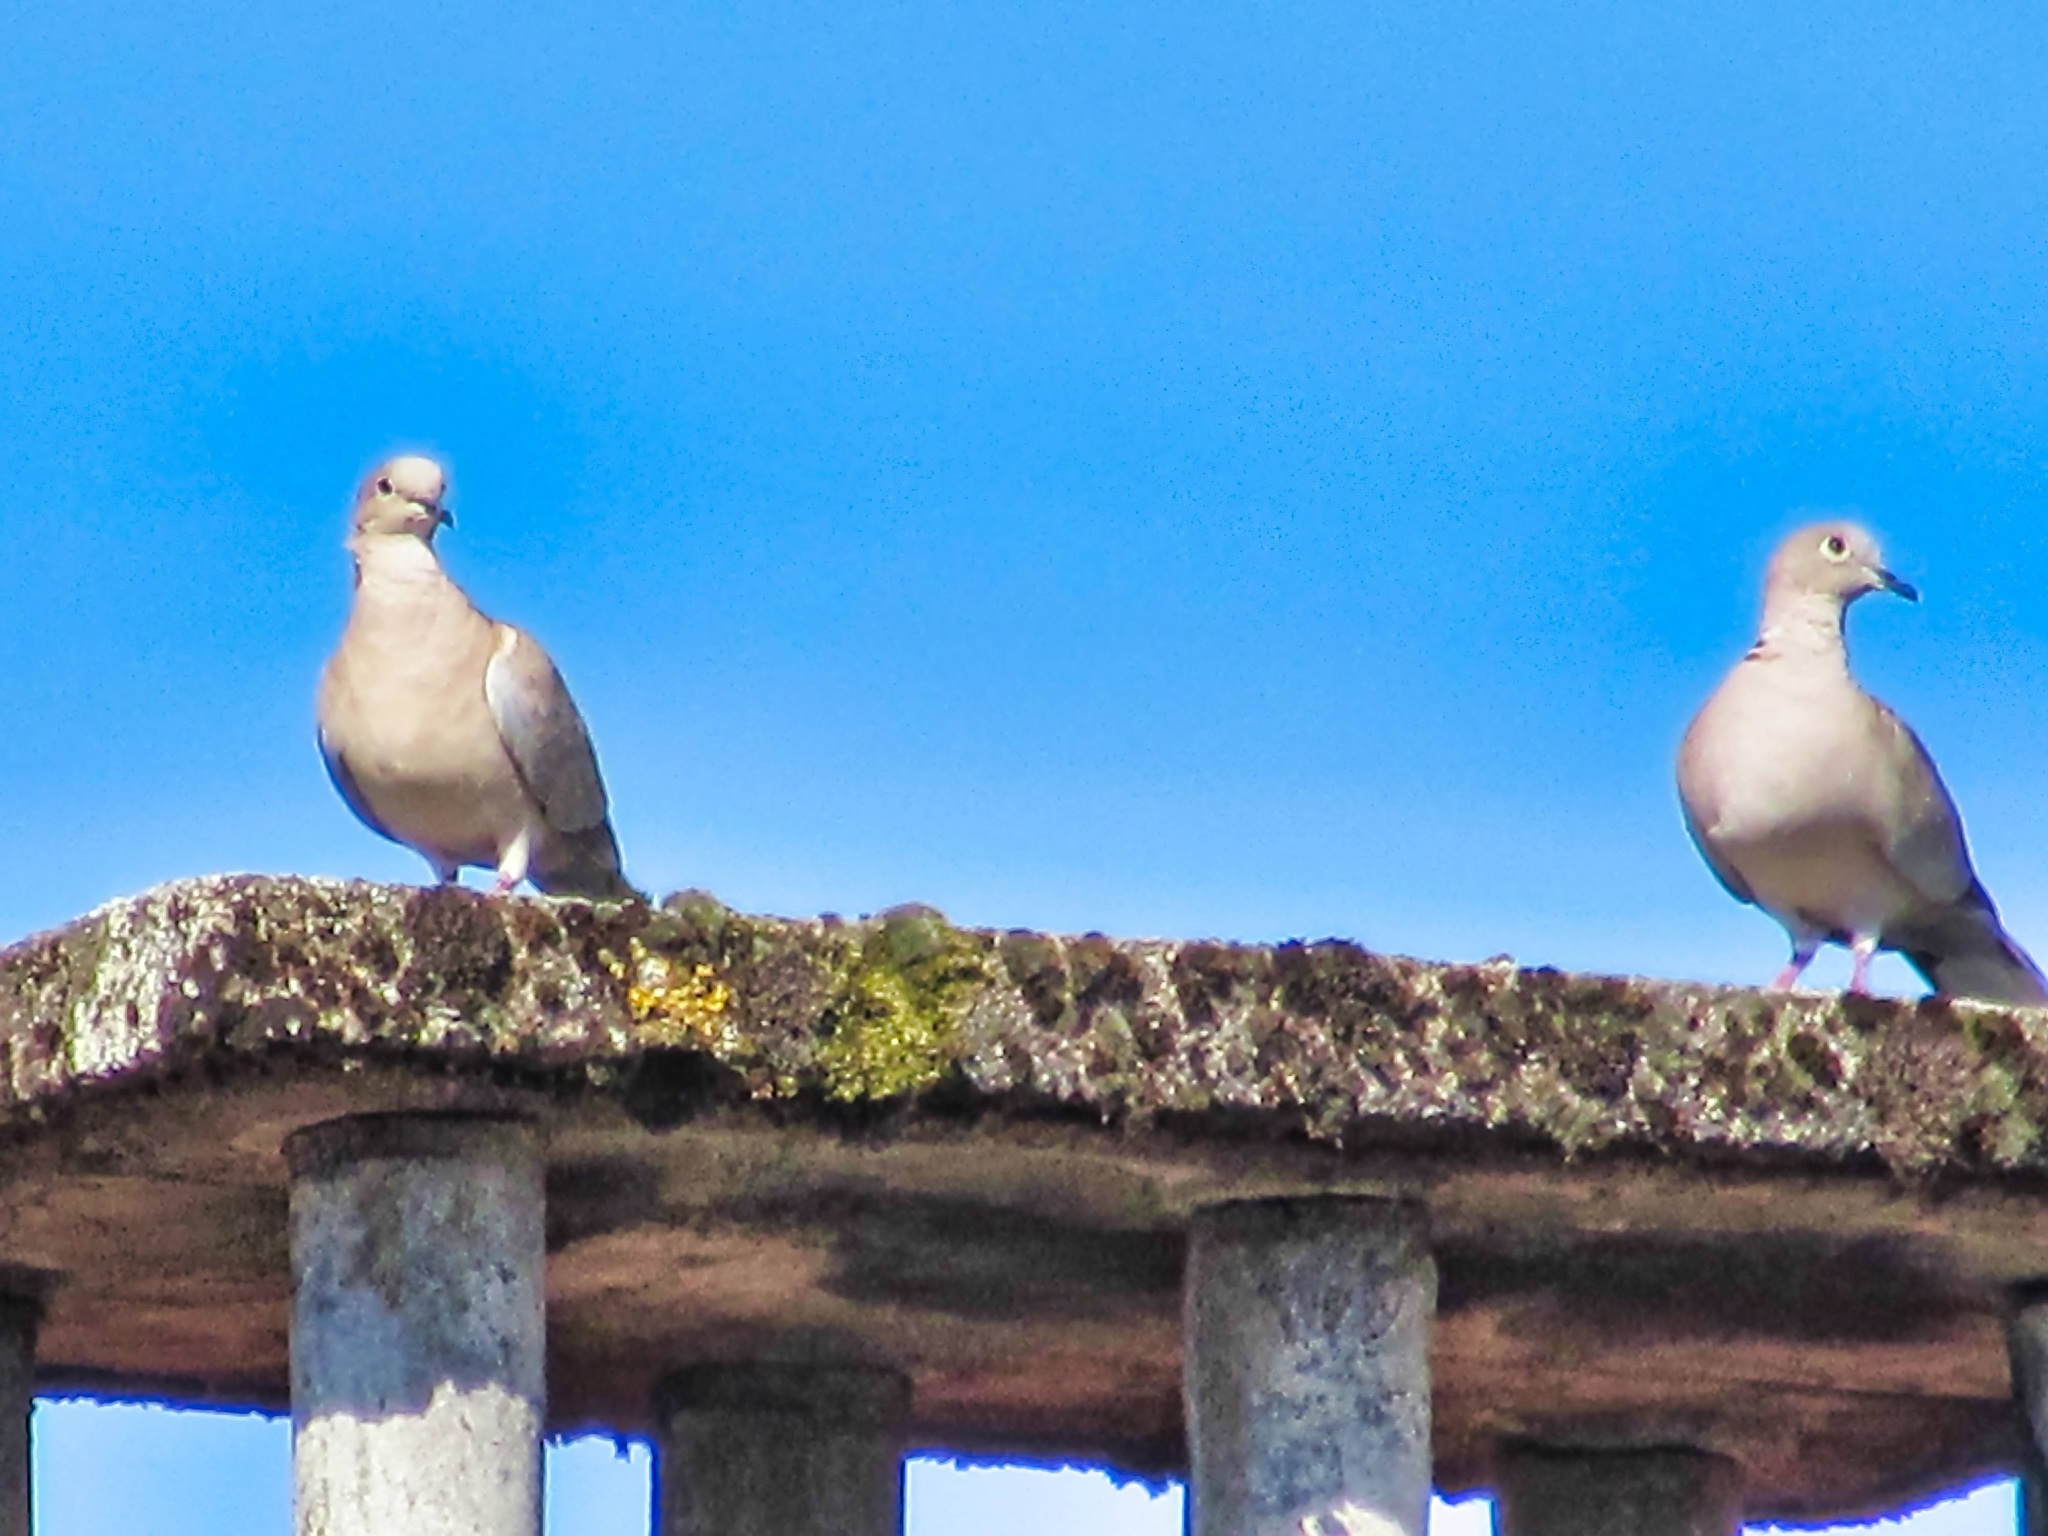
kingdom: Animalia
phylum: Chordata
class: Aves
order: Columbiformes
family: Columbidae
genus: Streptopelia
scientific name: Streptopelia decaocto
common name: Eurasian collared dove
